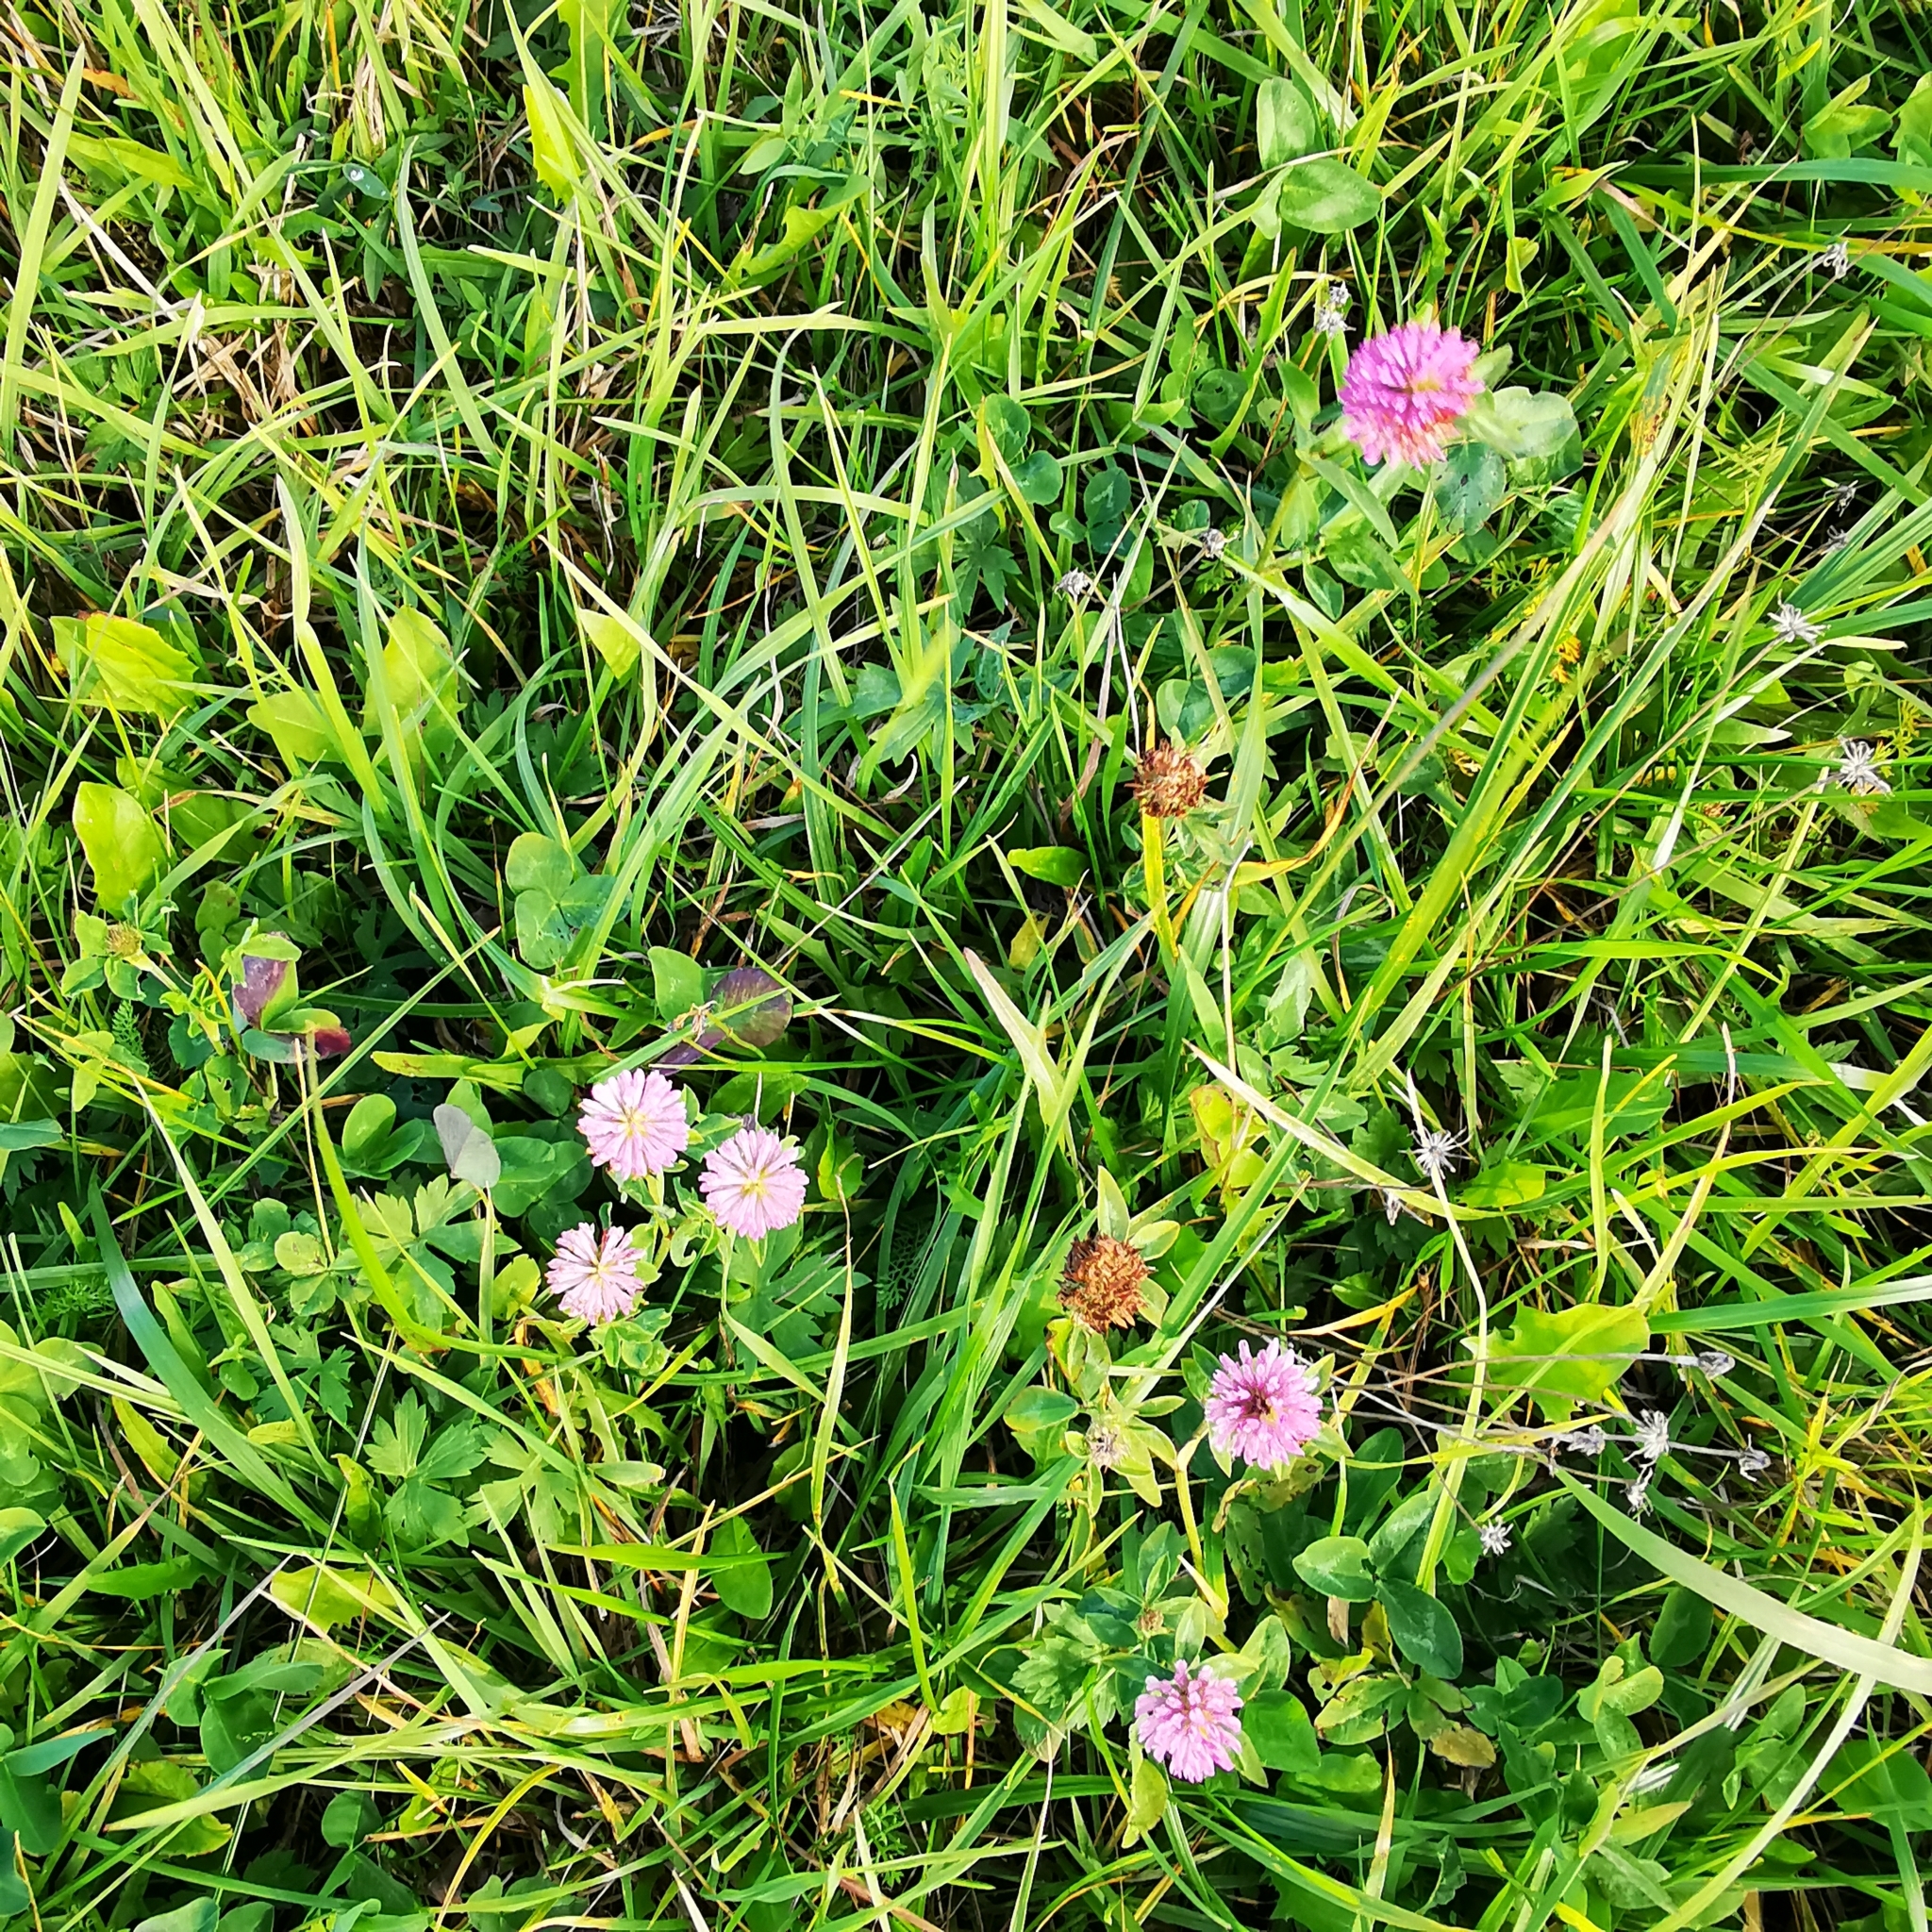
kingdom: Plantae
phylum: Tracheophyta
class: Magnoliopsida
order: Fabales
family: Fabaceae
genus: Trifolium
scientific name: Trifolium pratense
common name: Red clover
